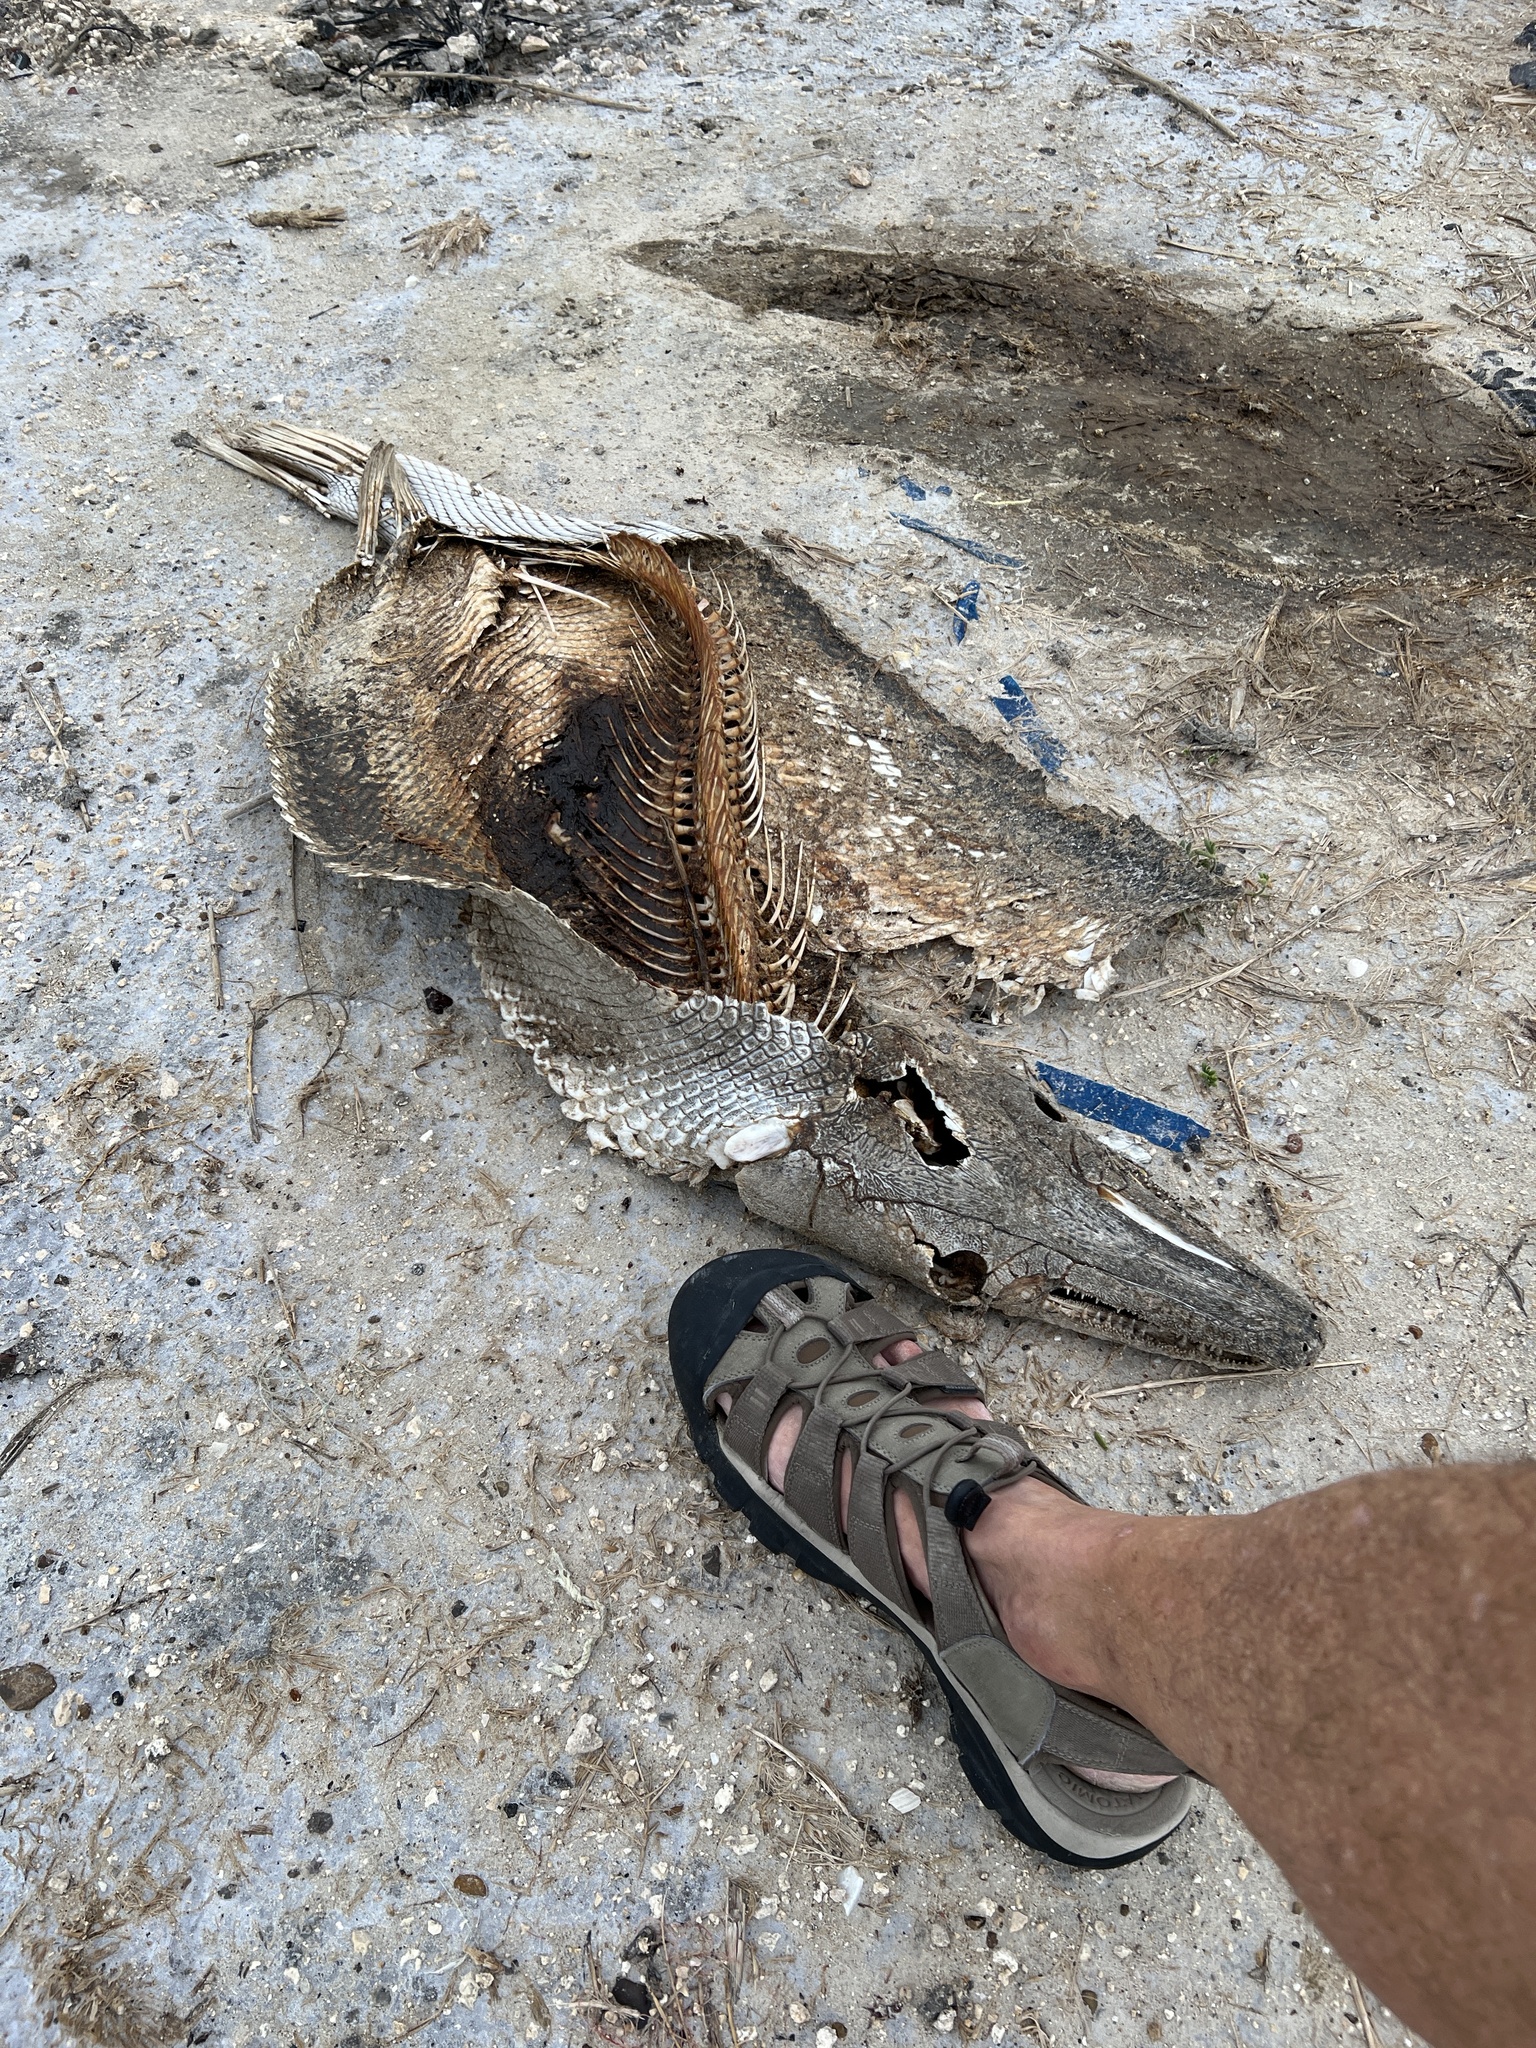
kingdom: Animalia
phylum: Chordata
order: Lepisosteiformes
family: Lepisosteidae
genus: Atractosteus
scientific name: Atractosteus spatula
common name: Alligator gar
